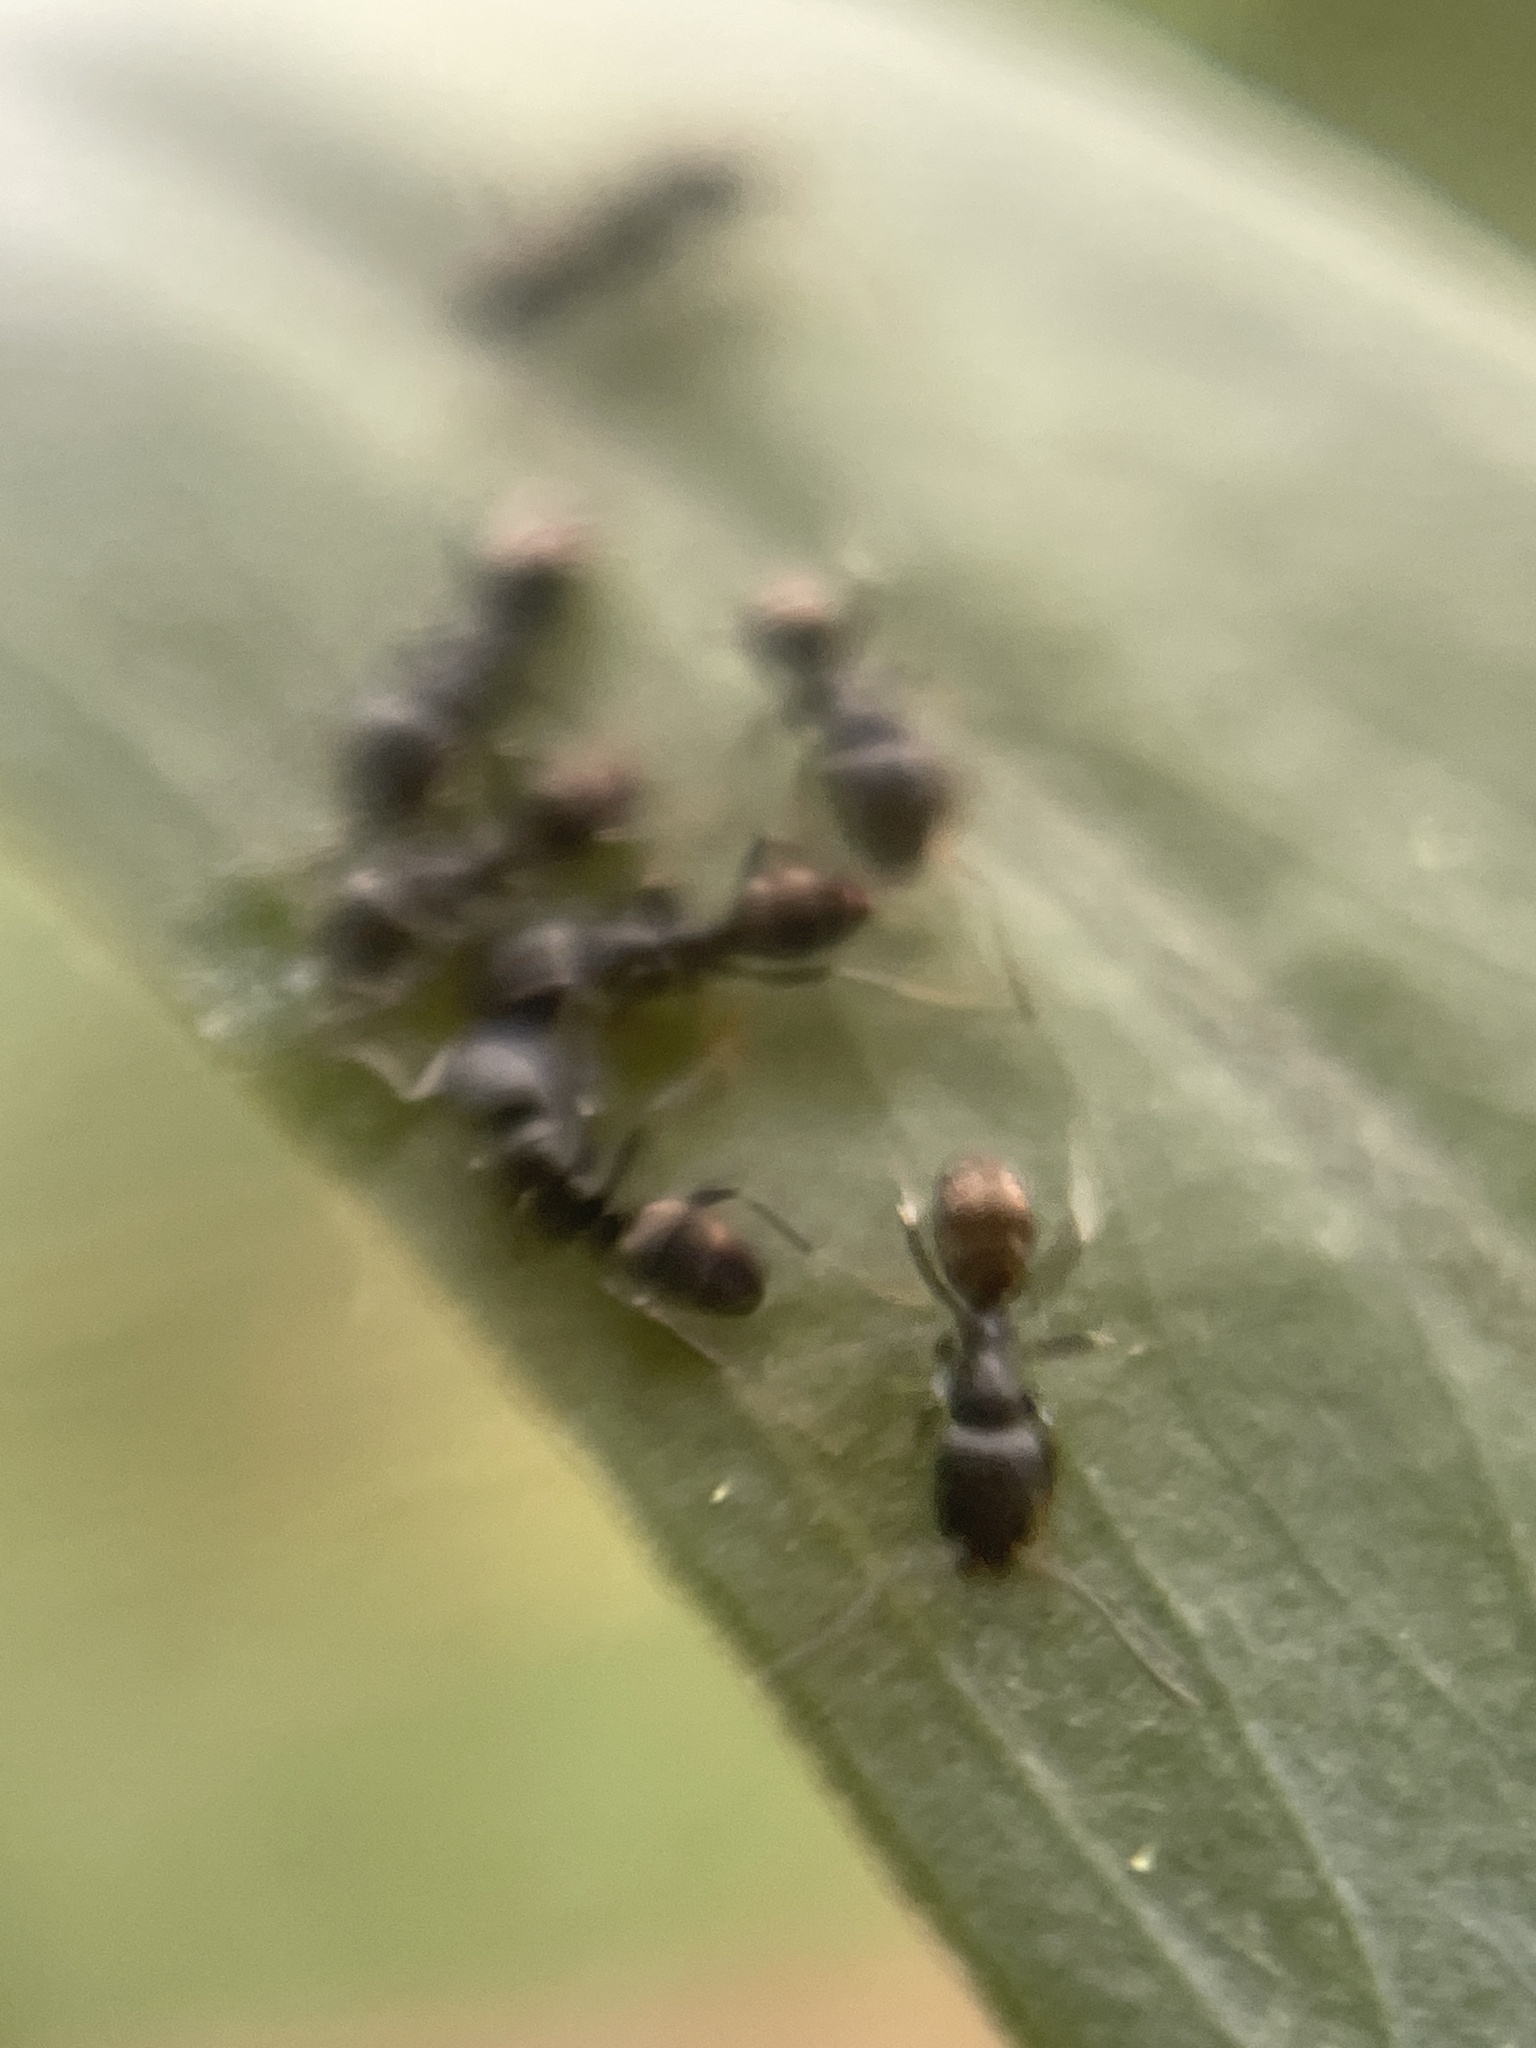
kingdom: Animalia
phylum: Arthropoda
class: Insecta
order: Hymenoptera
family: Formicidae
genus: Ochetellus
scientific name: Ochetellus punctatissimus
